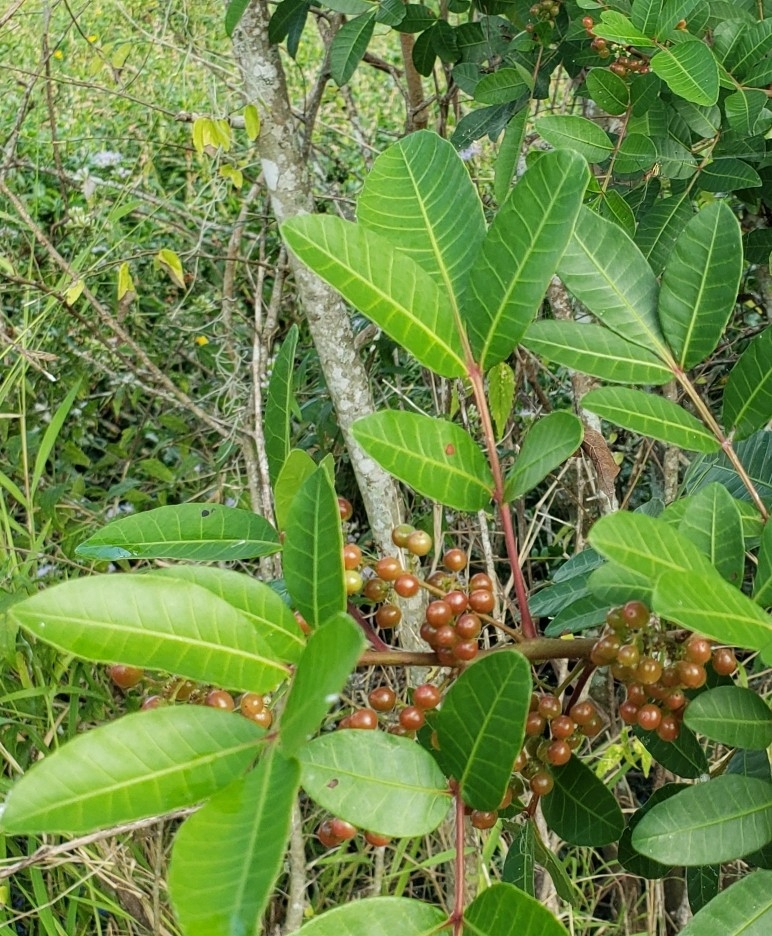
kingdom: Plantae
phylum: Tracheophyta
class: Magnoliopsida
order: Sapindales
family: Anacardiaceae
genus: Schinus
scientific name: Schinus terebinthifolia
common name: Brazilian peppertree
